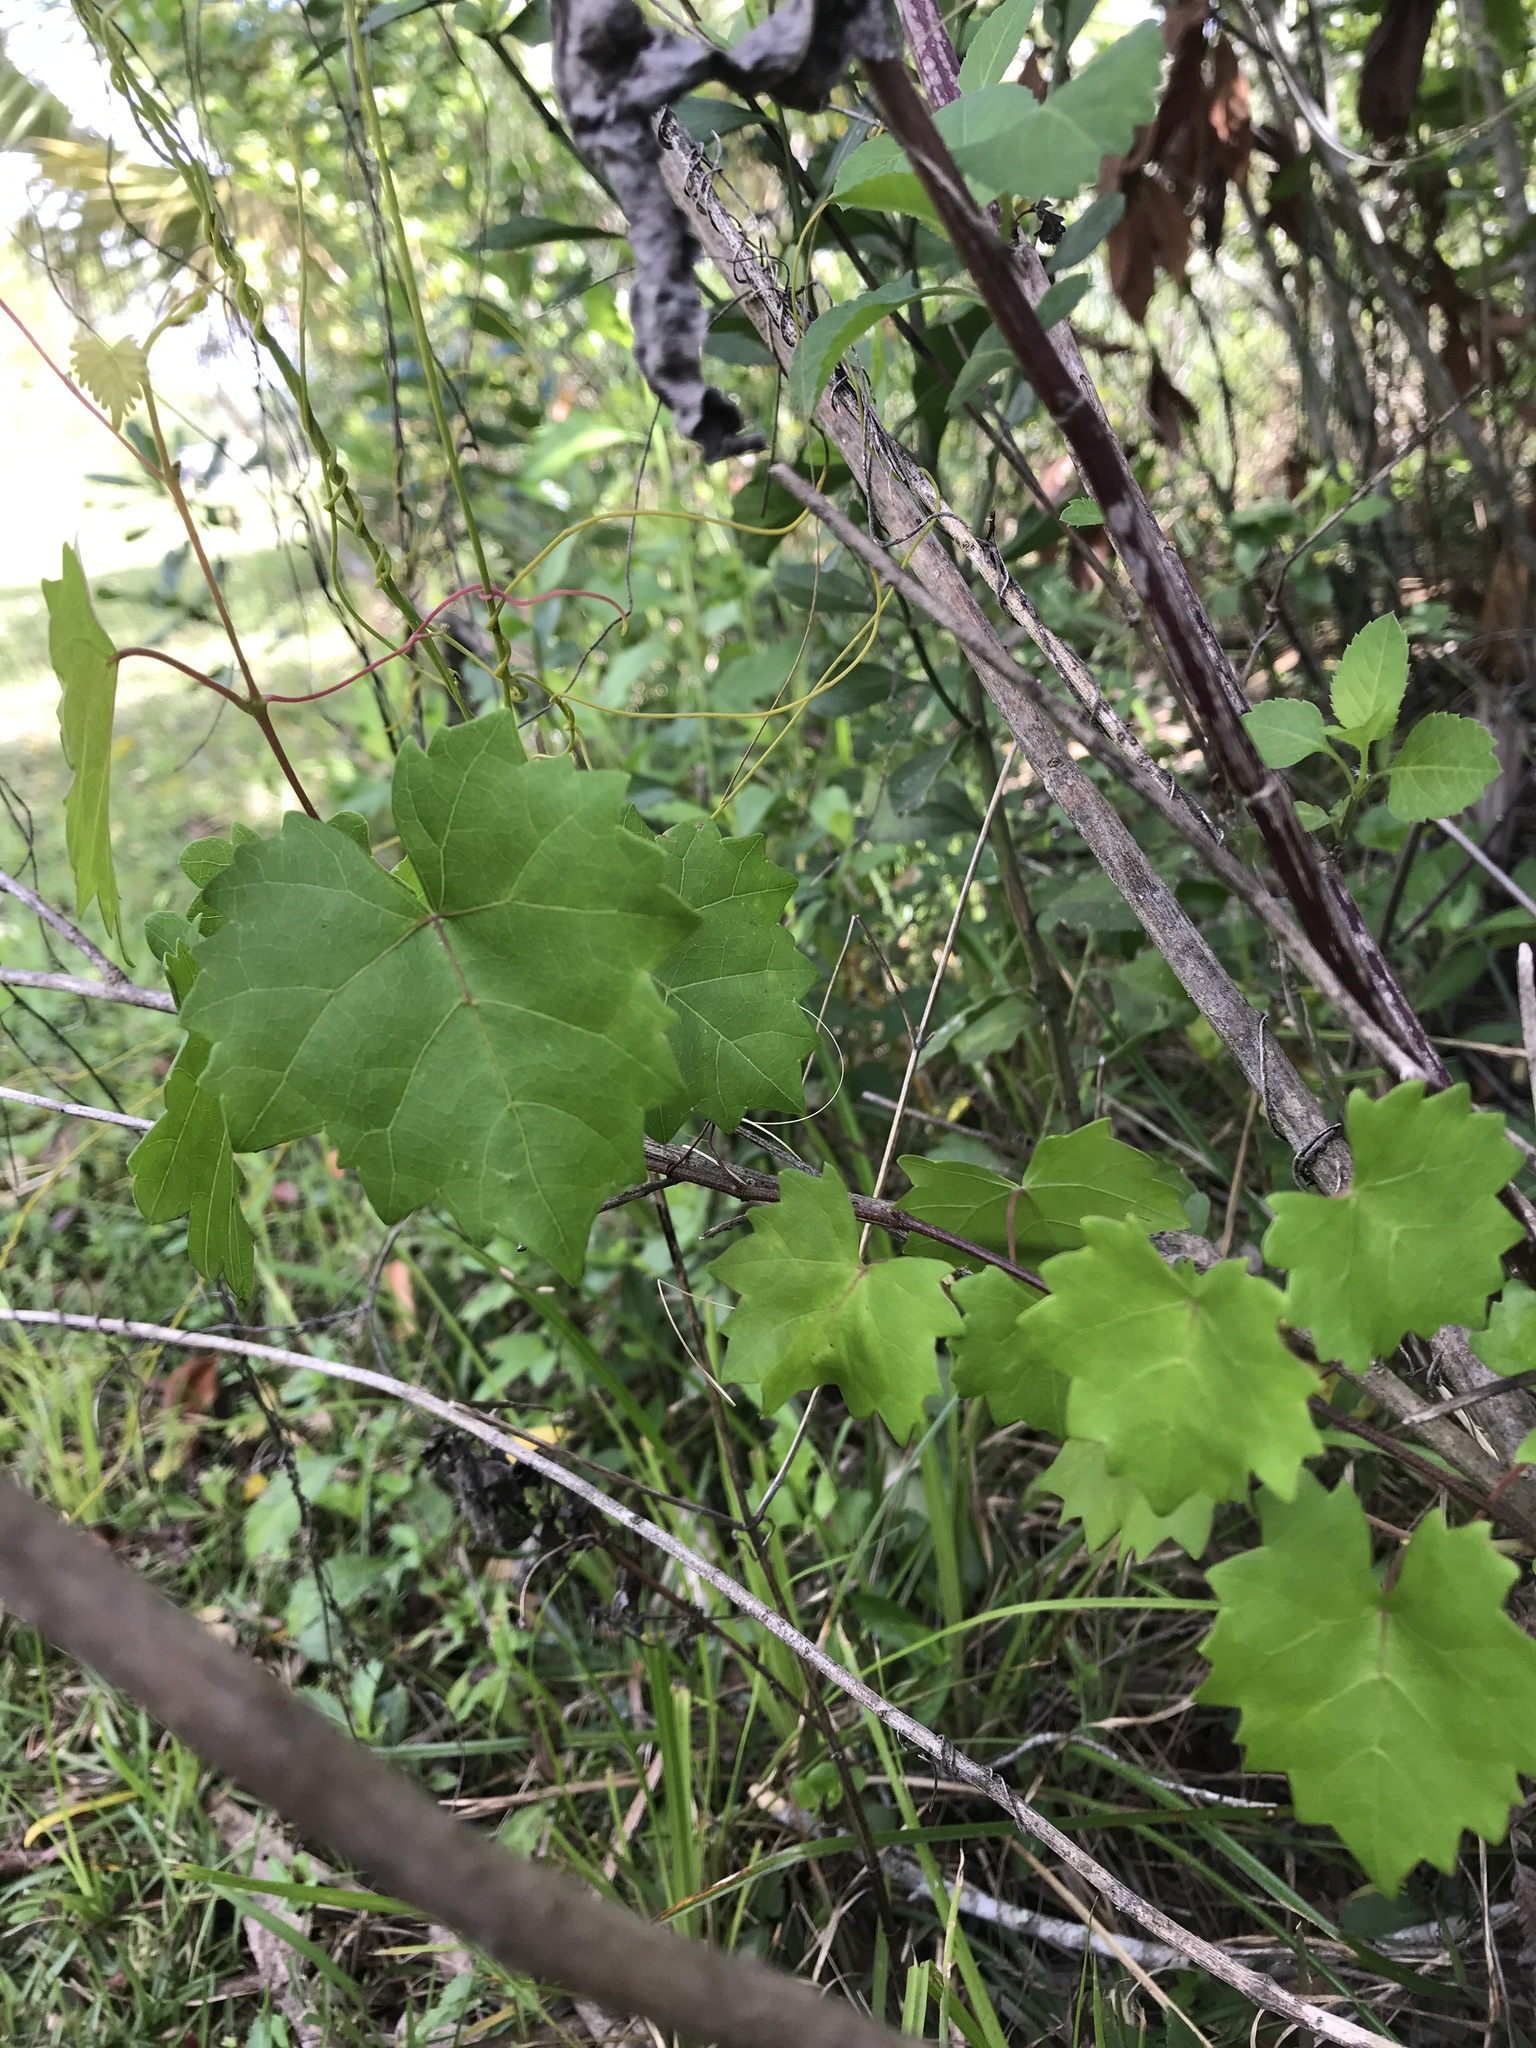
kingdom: Plantae
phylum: Tracheophyta
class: Magnoliopsida
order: Vitales
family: Vitaceae
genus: Vitis
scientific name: Vitis rotundifolia
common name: Muscadine grape
